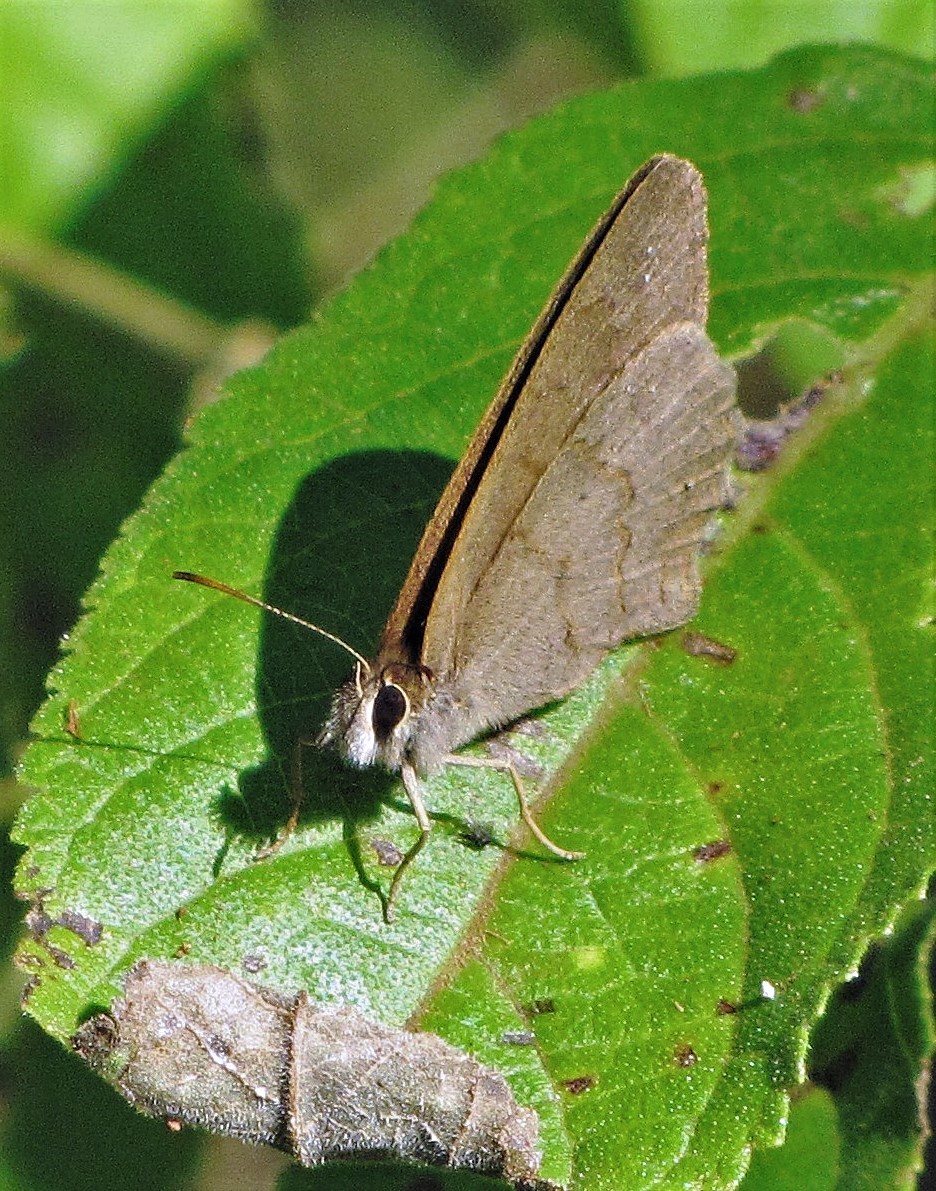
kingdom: Animalia
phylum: Arthropoda
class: Insecta
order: Lepidoptera
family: Nymphalidae
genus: Euptychia
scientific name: Euptychia
